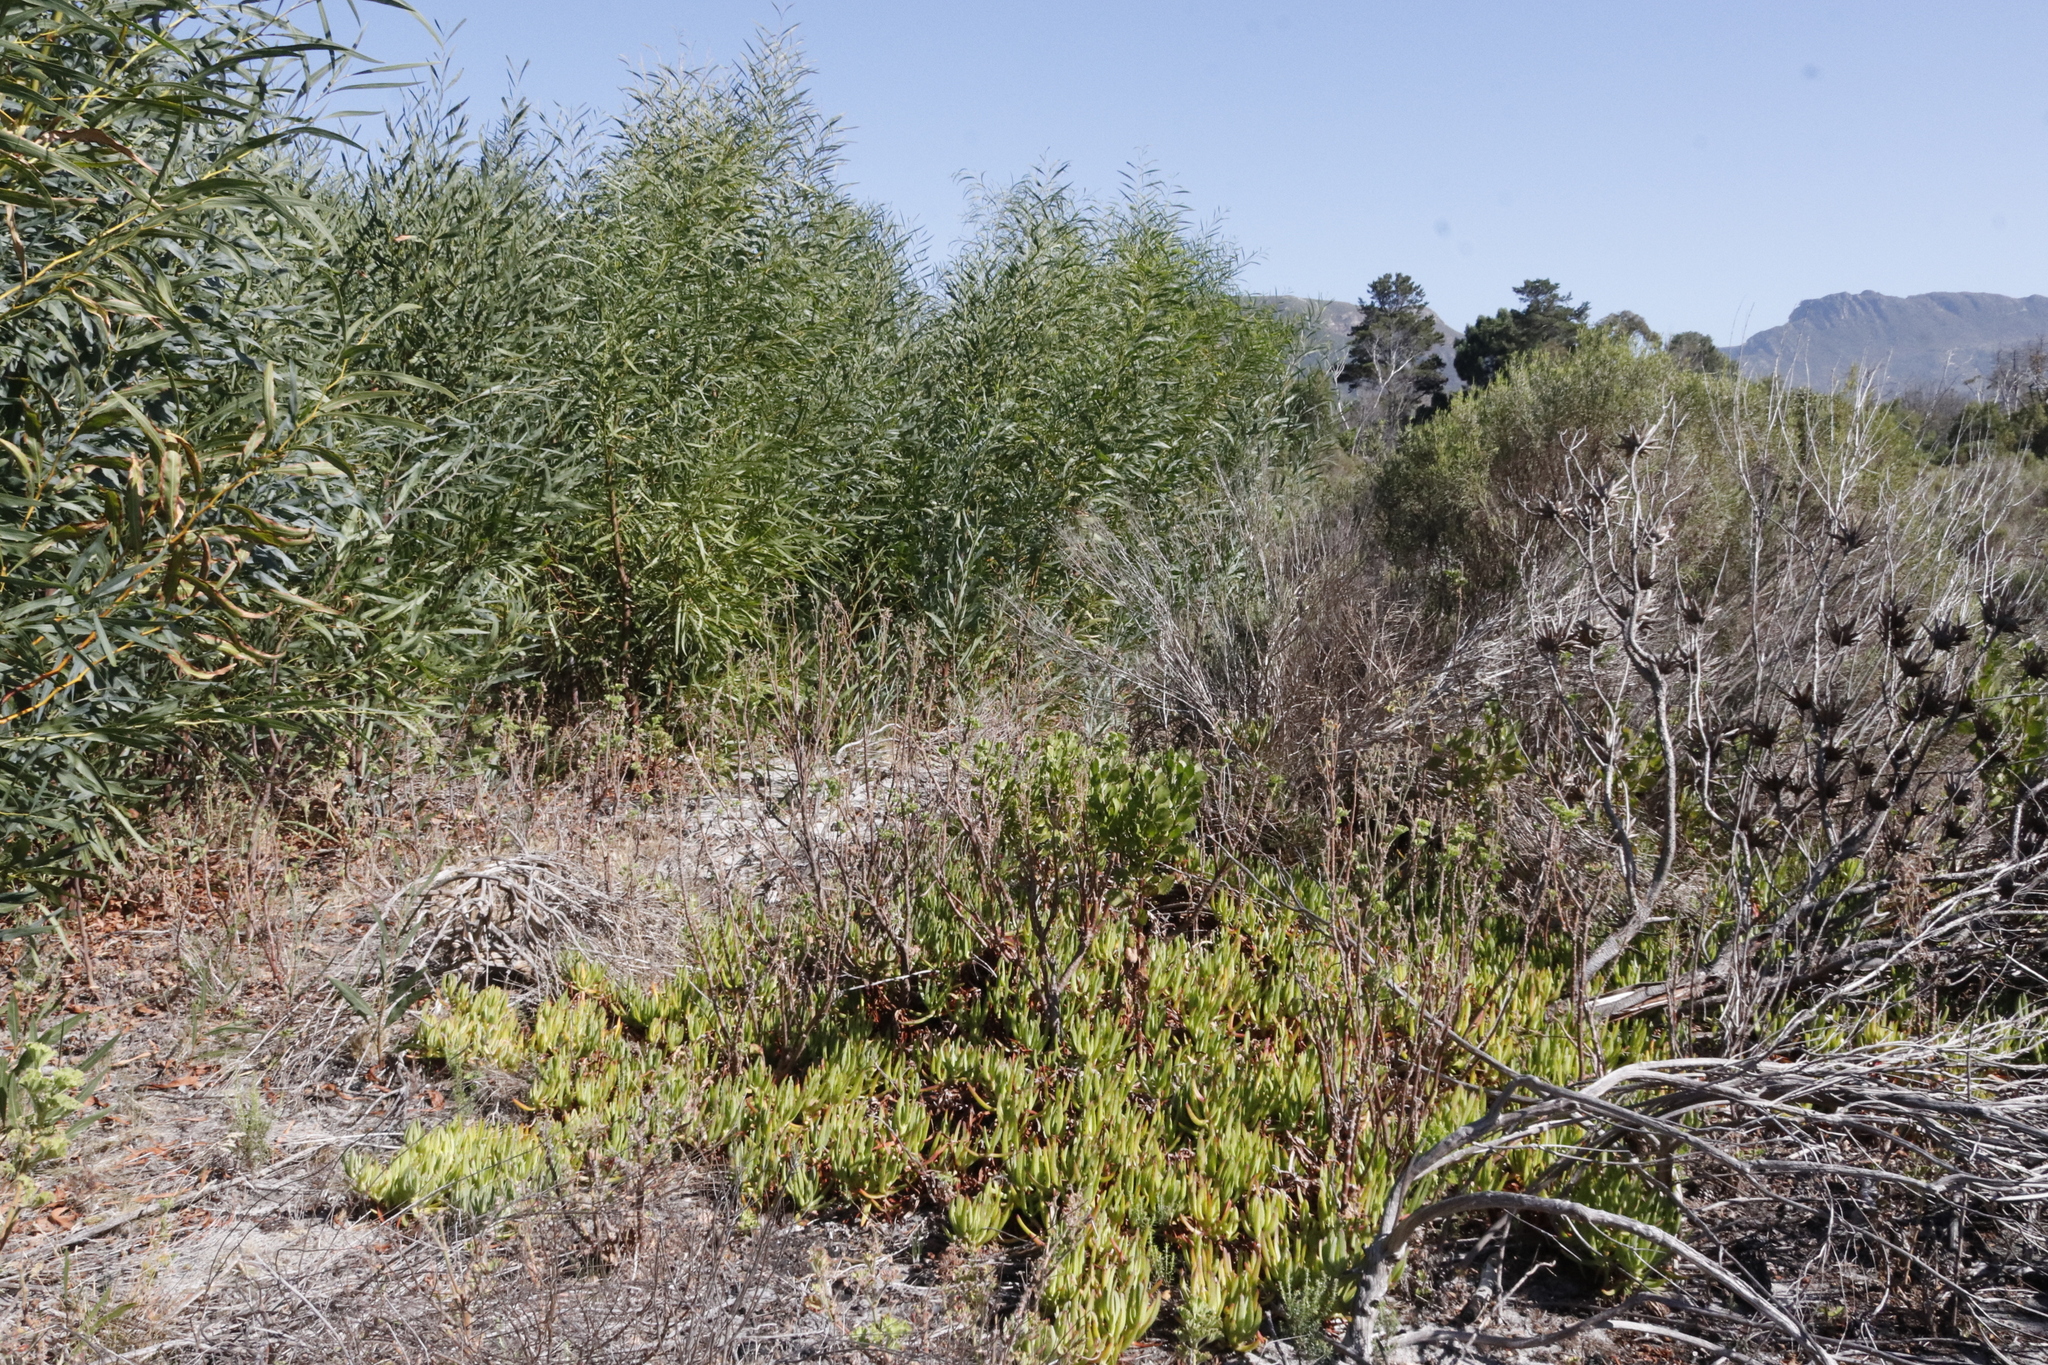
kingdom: Plantae
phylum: Tracheophyta
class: Magnoliopsida
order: Caryophyllales
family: Aizoaceae
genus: Carpobrotus
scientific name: Carpobrotus edulis
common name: Hottentot-fig
